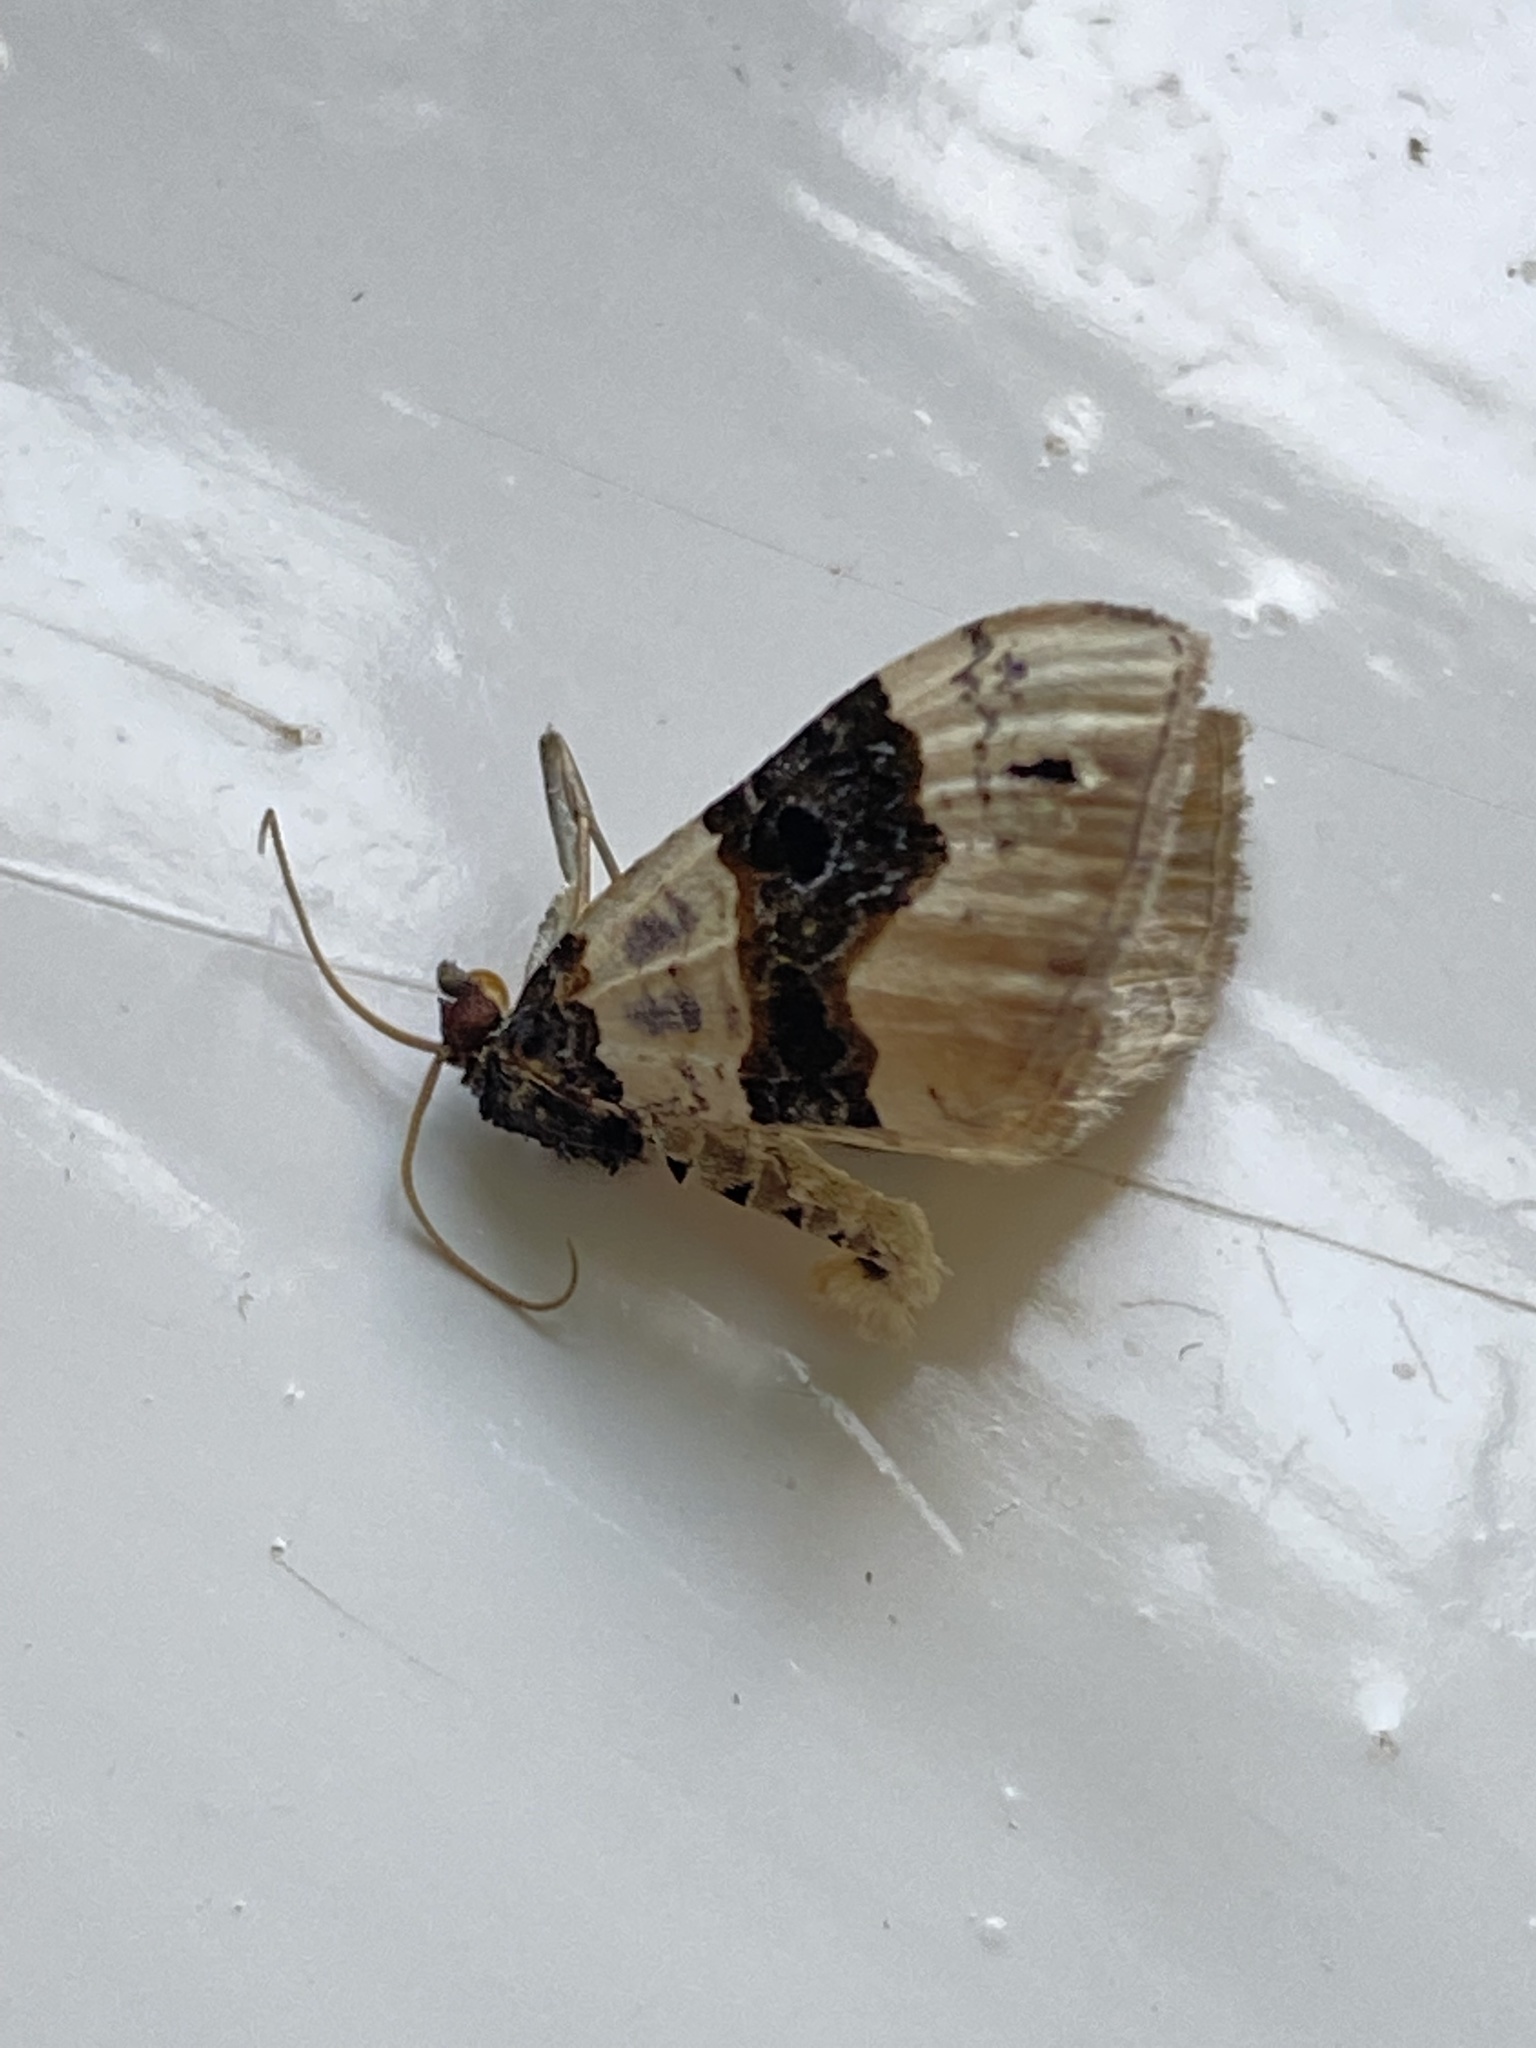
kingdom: Animalia
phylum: Arthropoda
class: Insecta
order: Lepidoptera
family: Geometridae
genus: Cosmorhoe
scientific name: Cosmorhoe ocellata
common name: Purple bar
